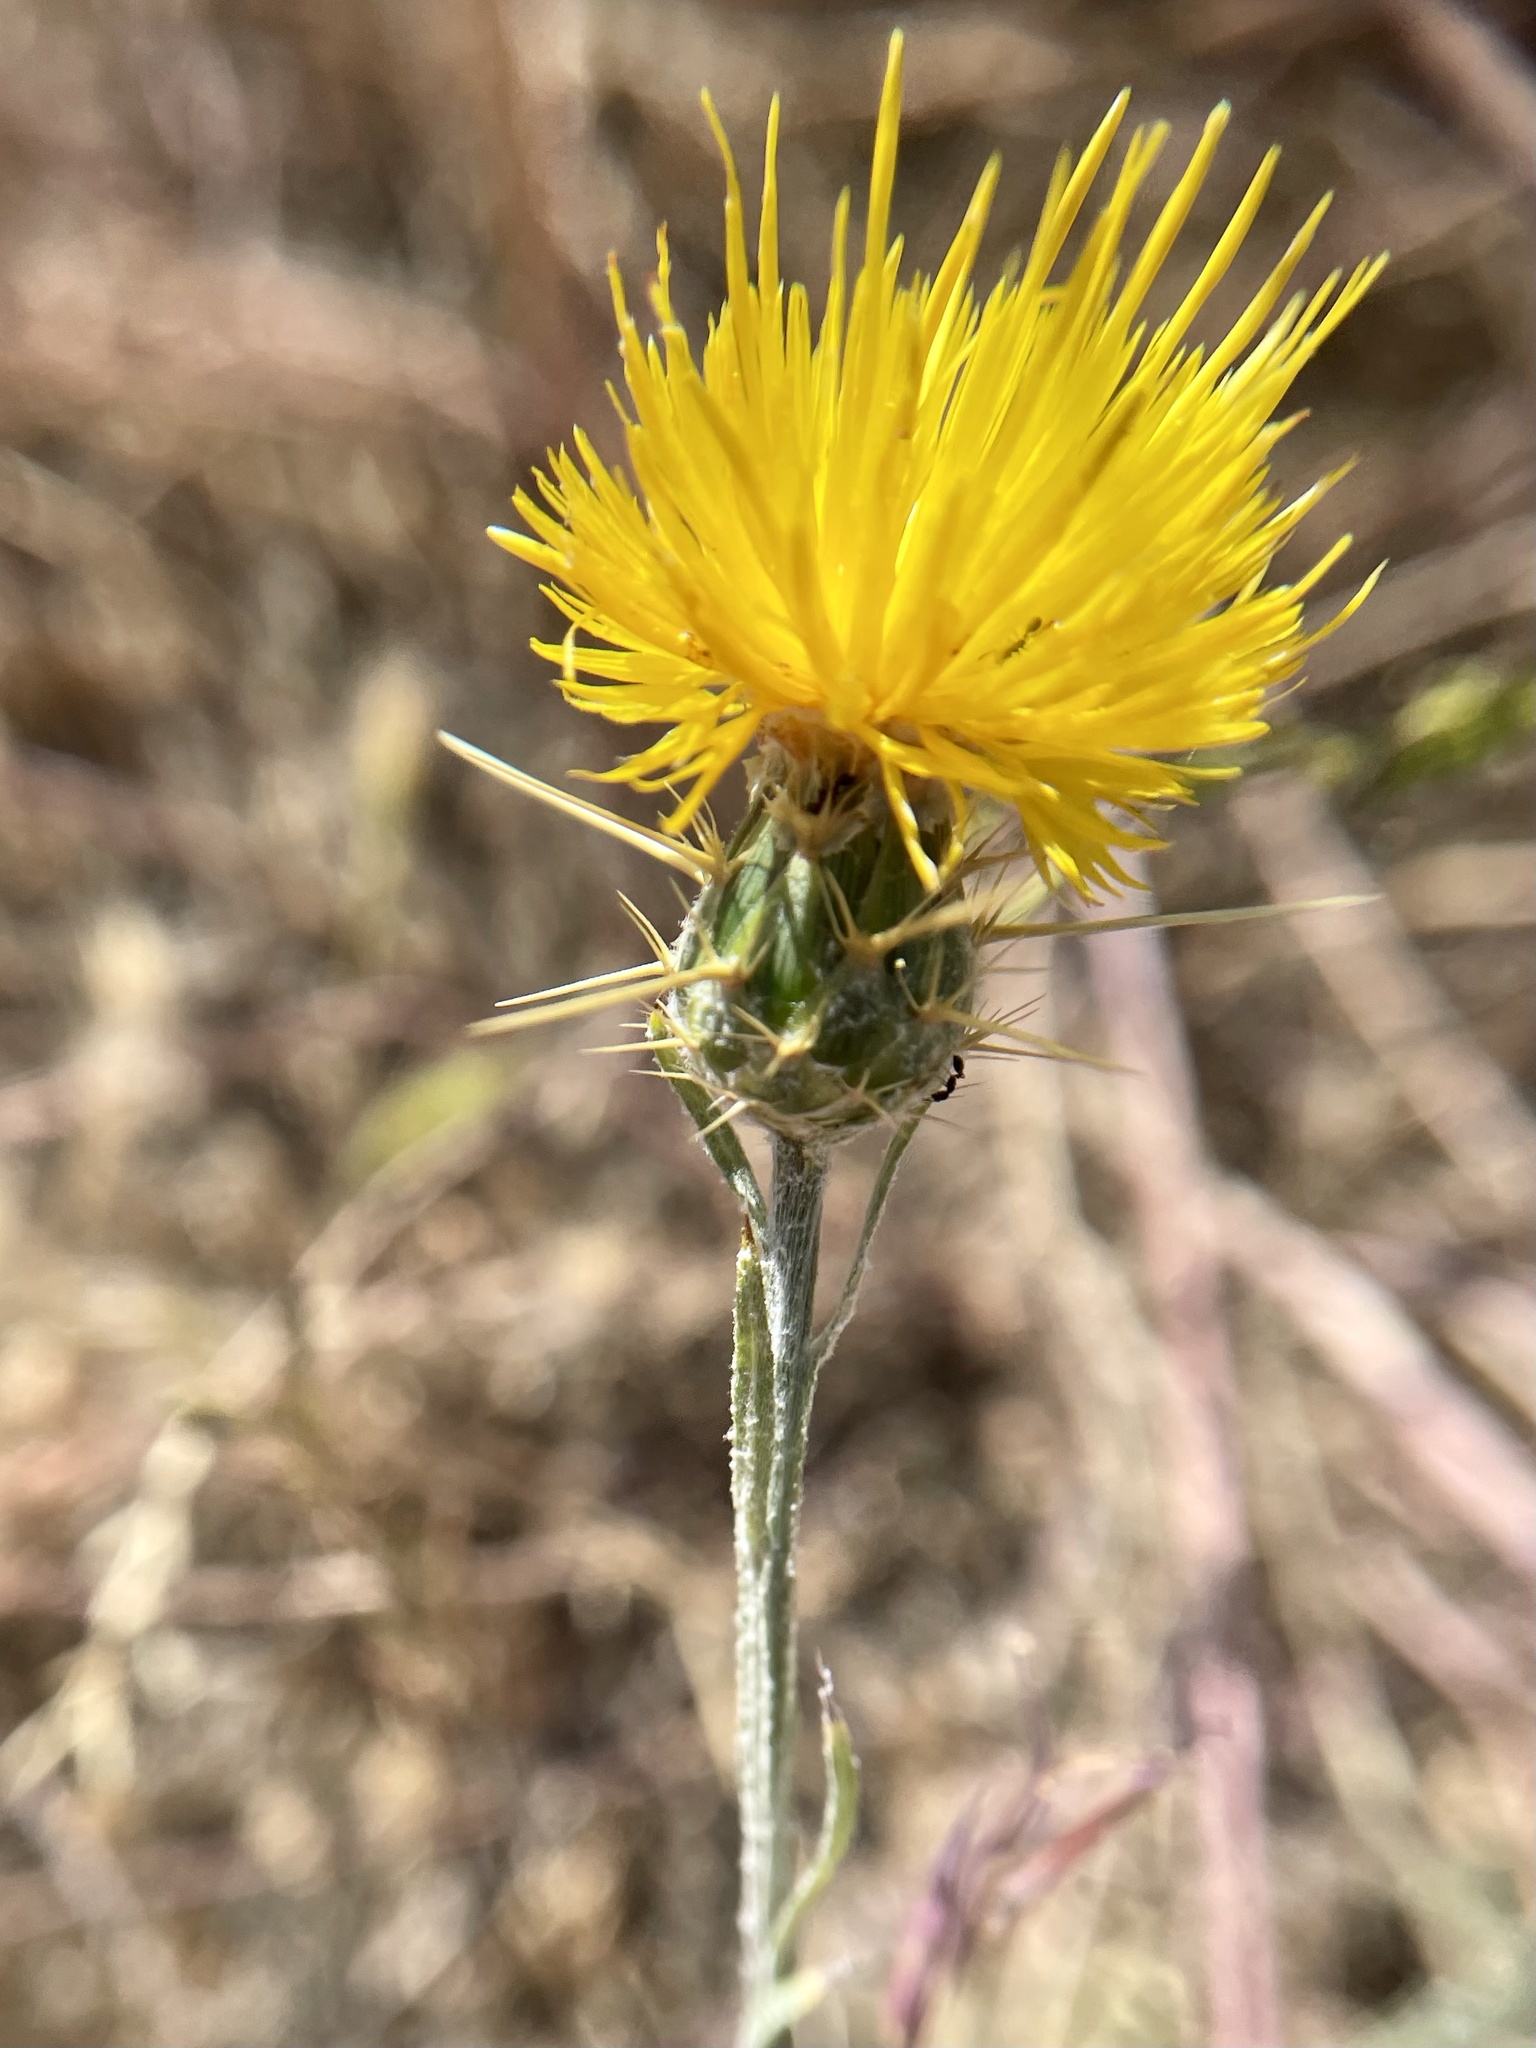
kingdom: Plantae
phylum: Tracheophyta
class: Magnoliopsida
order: Asterales
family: Asteraceae
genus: Centaurea
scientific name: Centaurea solstitialis
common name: Yellow star-thistle
